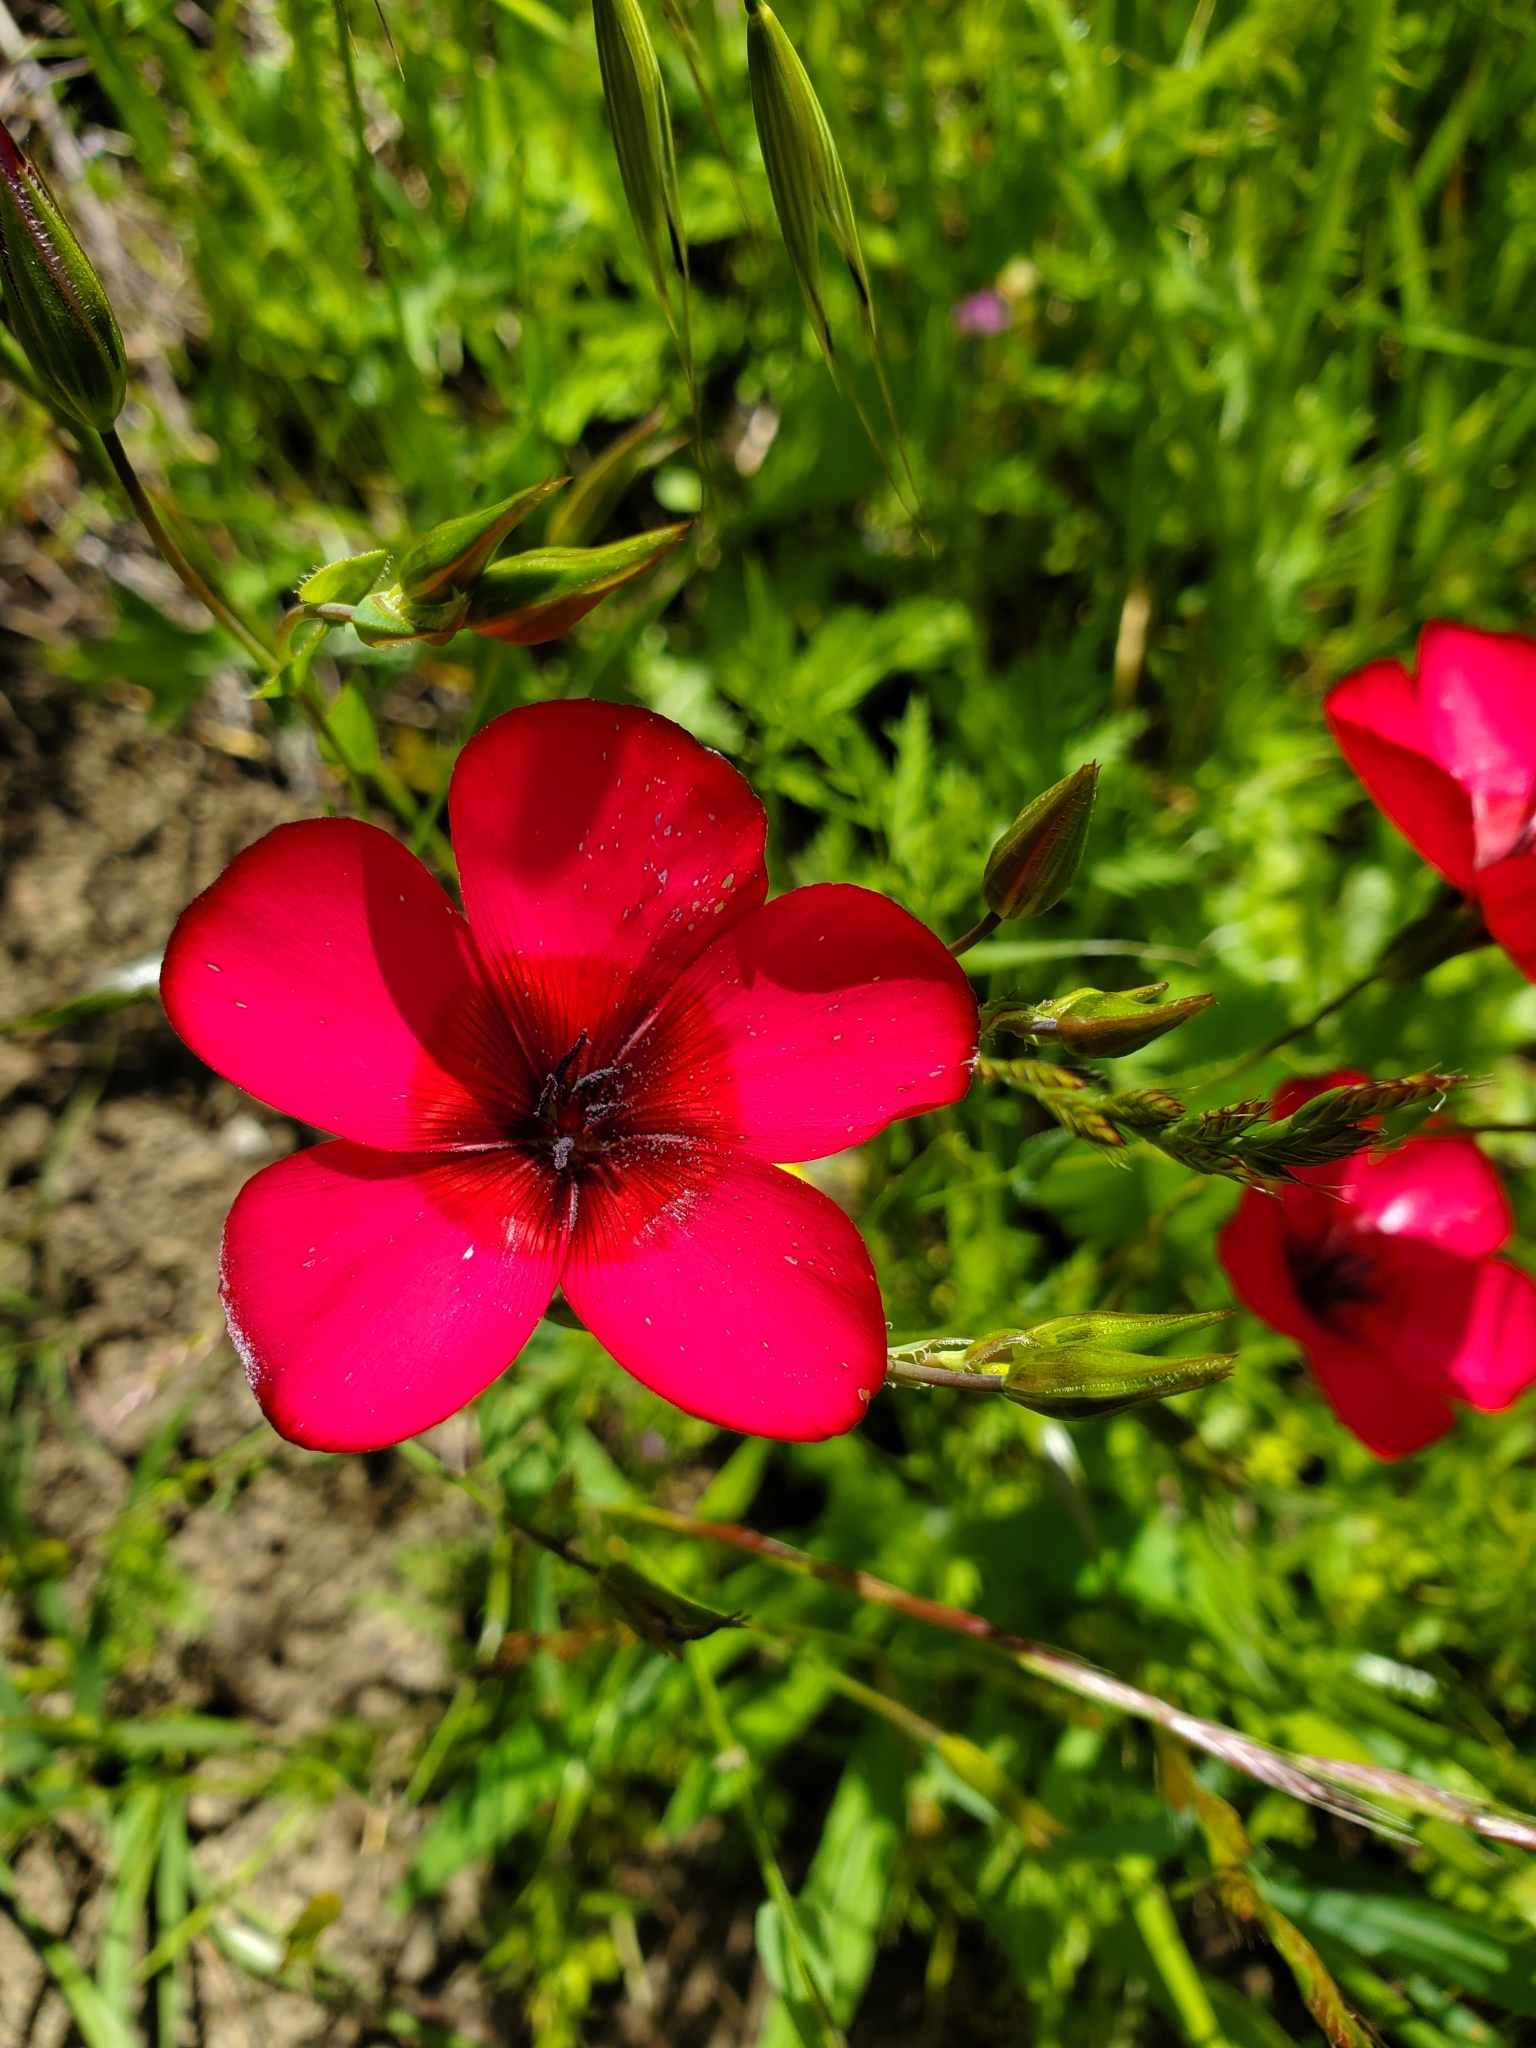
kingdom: Plantae
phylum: Tracheophyta
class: Magnoliopsida
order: Malpighiales
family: Linaceae
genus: Linum
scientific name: Linum grandiflorum
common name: Crimson flax
